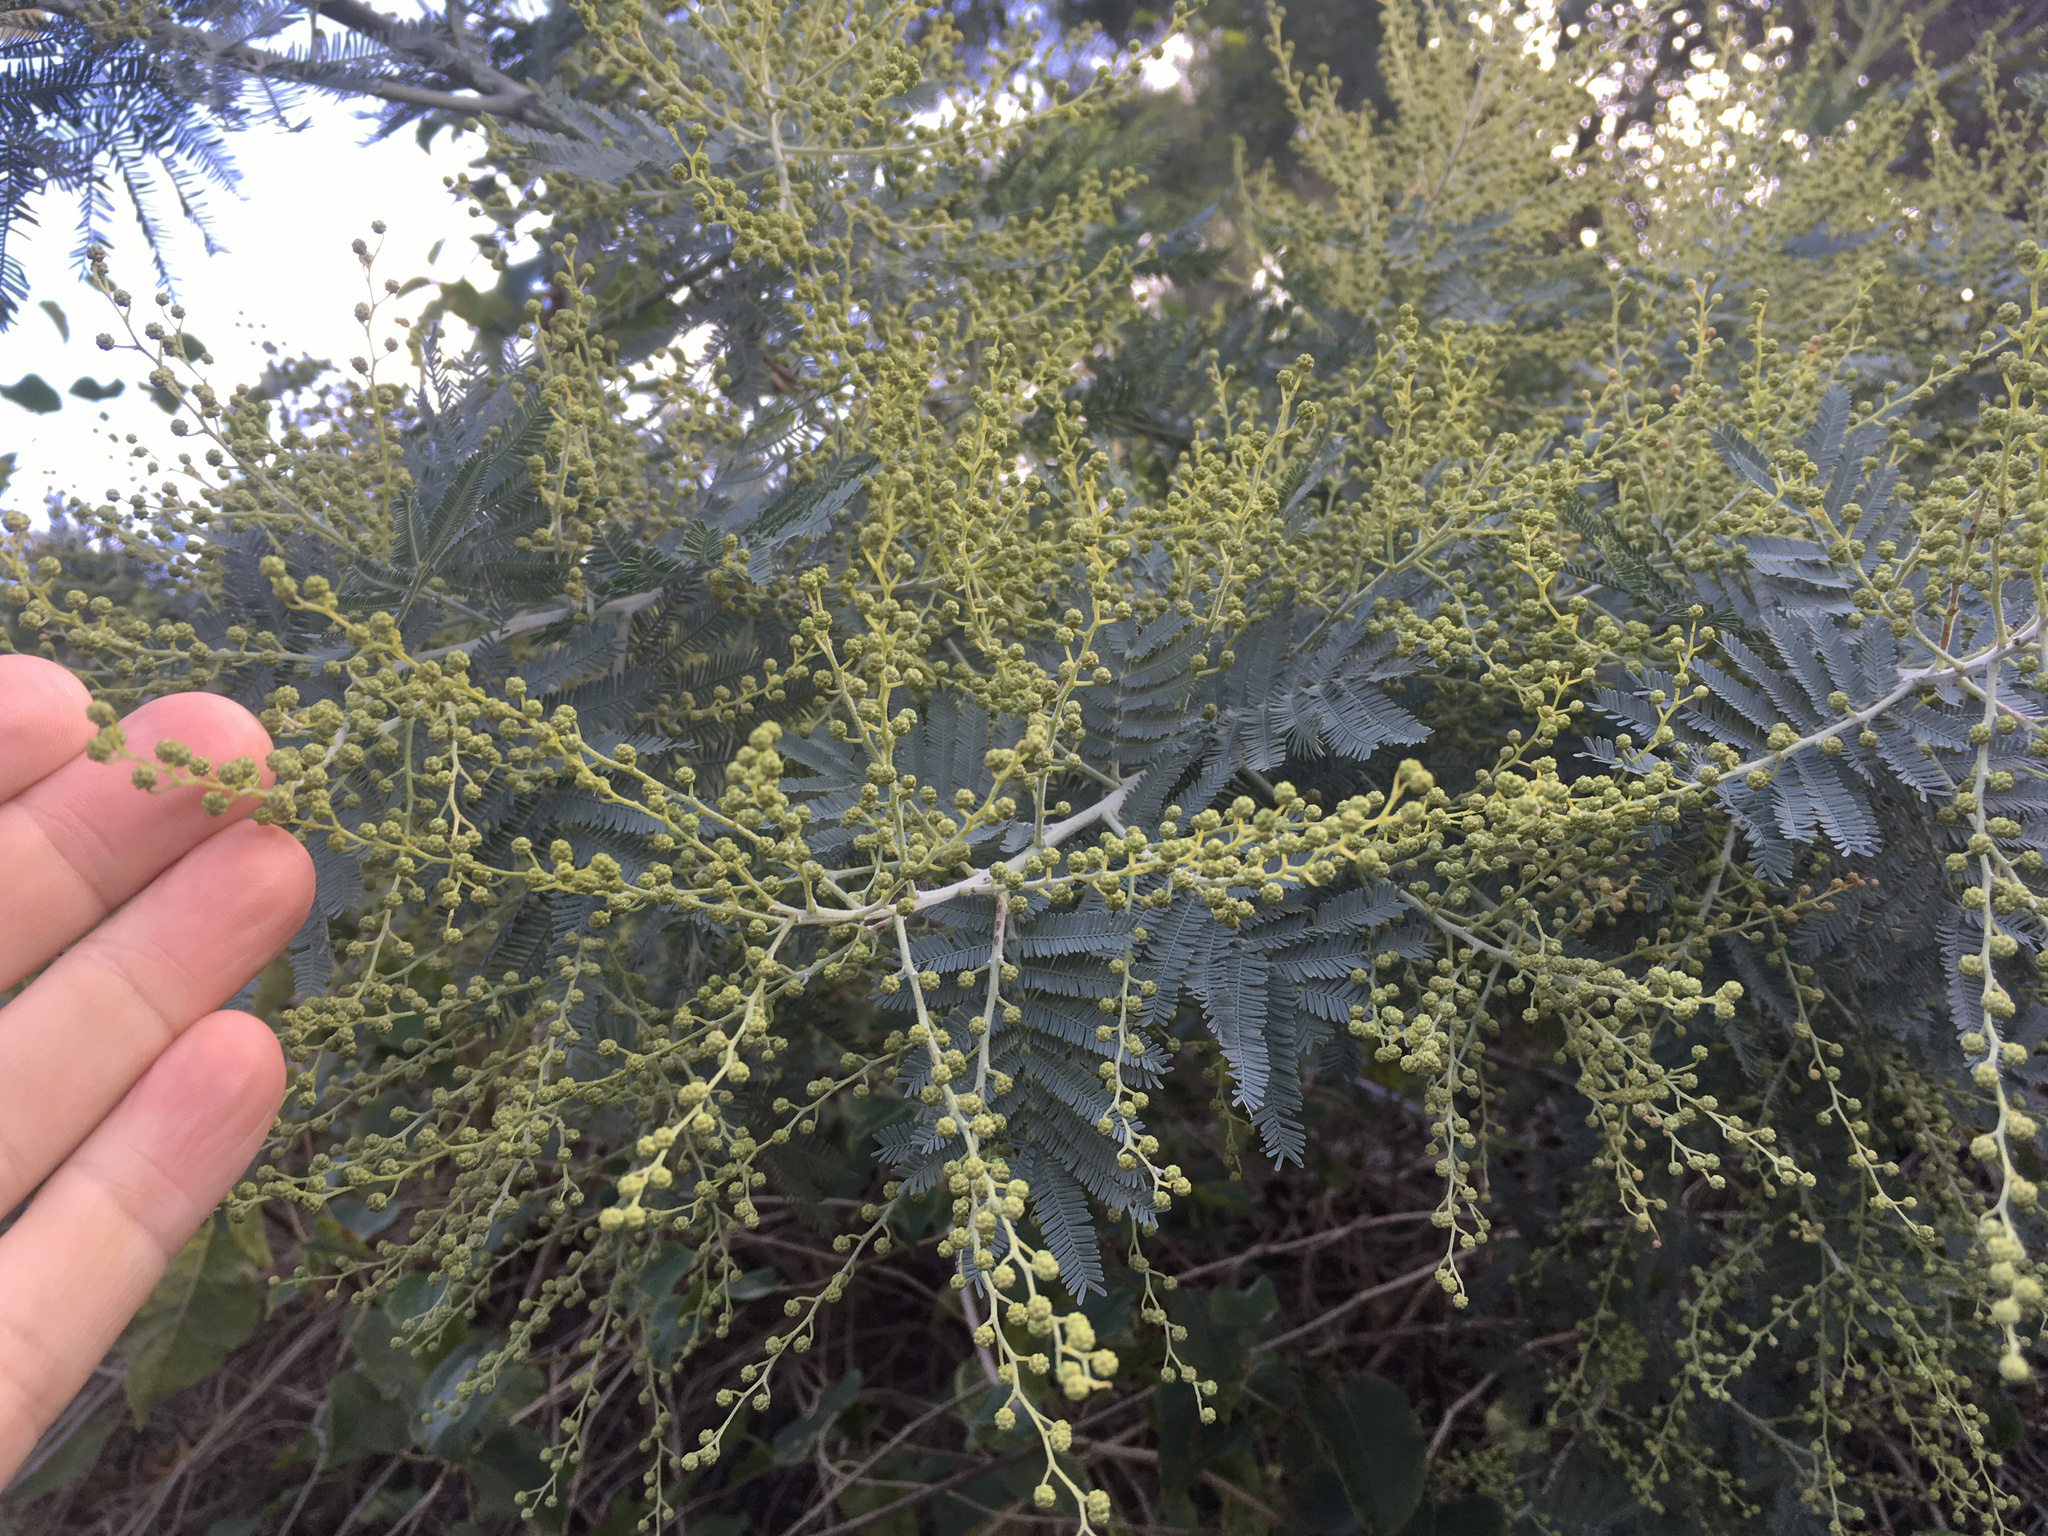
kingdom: Plantae
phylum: Tracheophyta
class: Magnoliopsida
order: Fabales
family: Fabaceae
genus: Acacia
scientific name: Acacia dealbata
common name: Silver wattle
